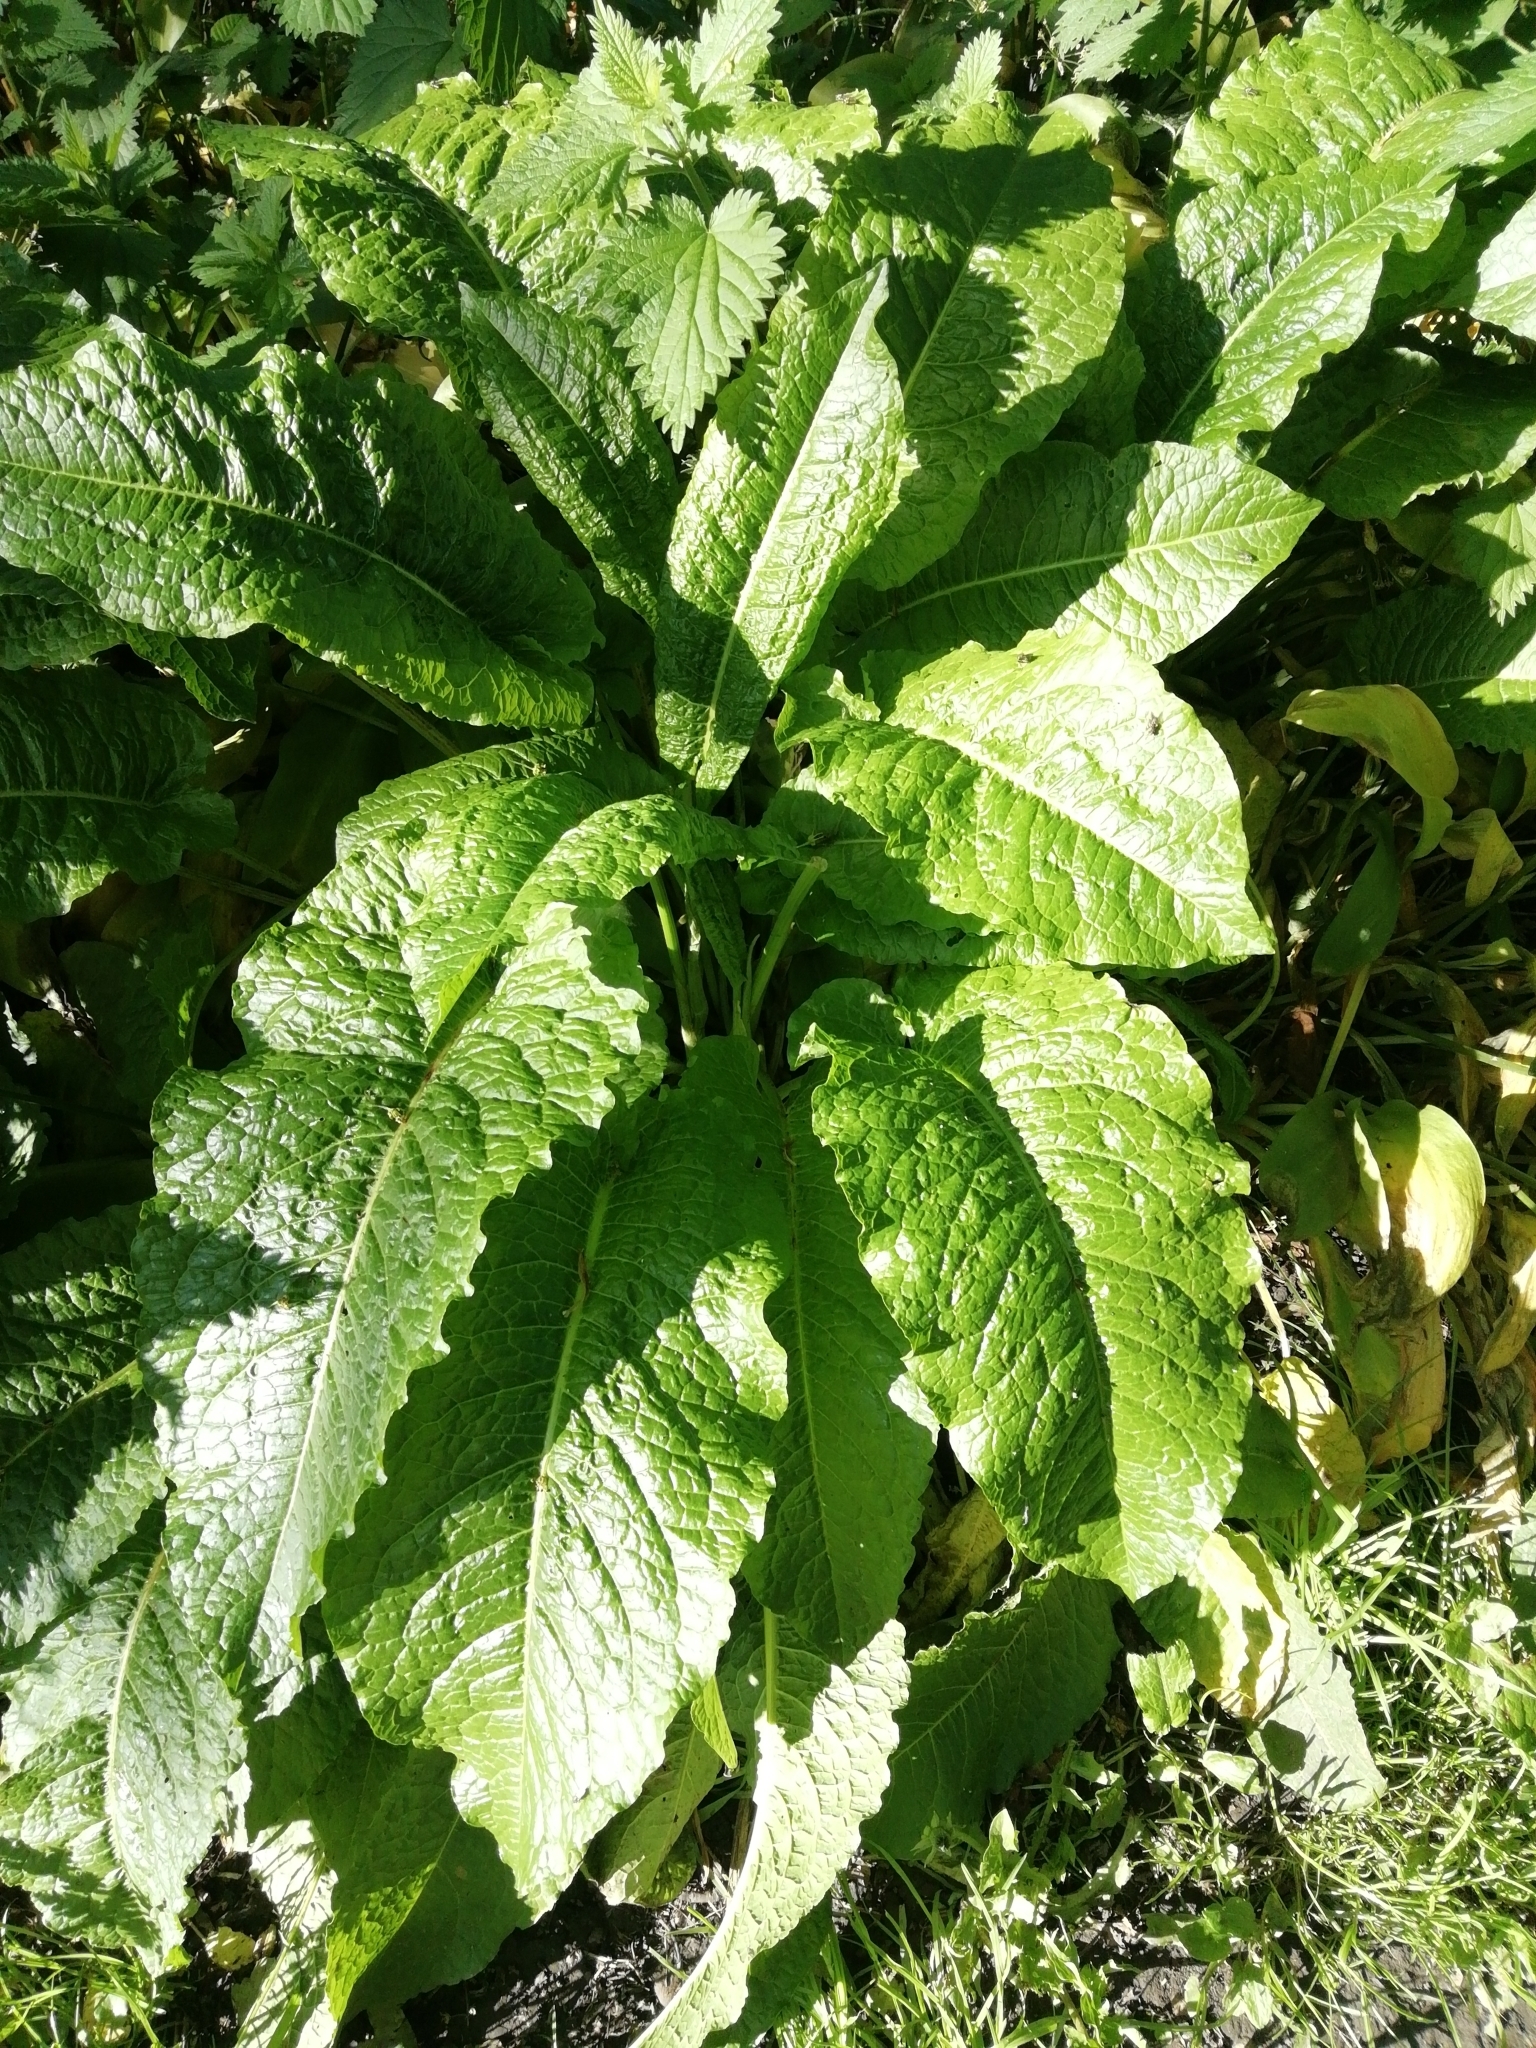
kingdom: Plantae
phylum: Tracheophyta
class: Magnoliopsida
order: Caryophyllales
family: Polygonaceae
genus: Rumex
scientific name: Rumex obtusifolius
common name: Bitter dock
